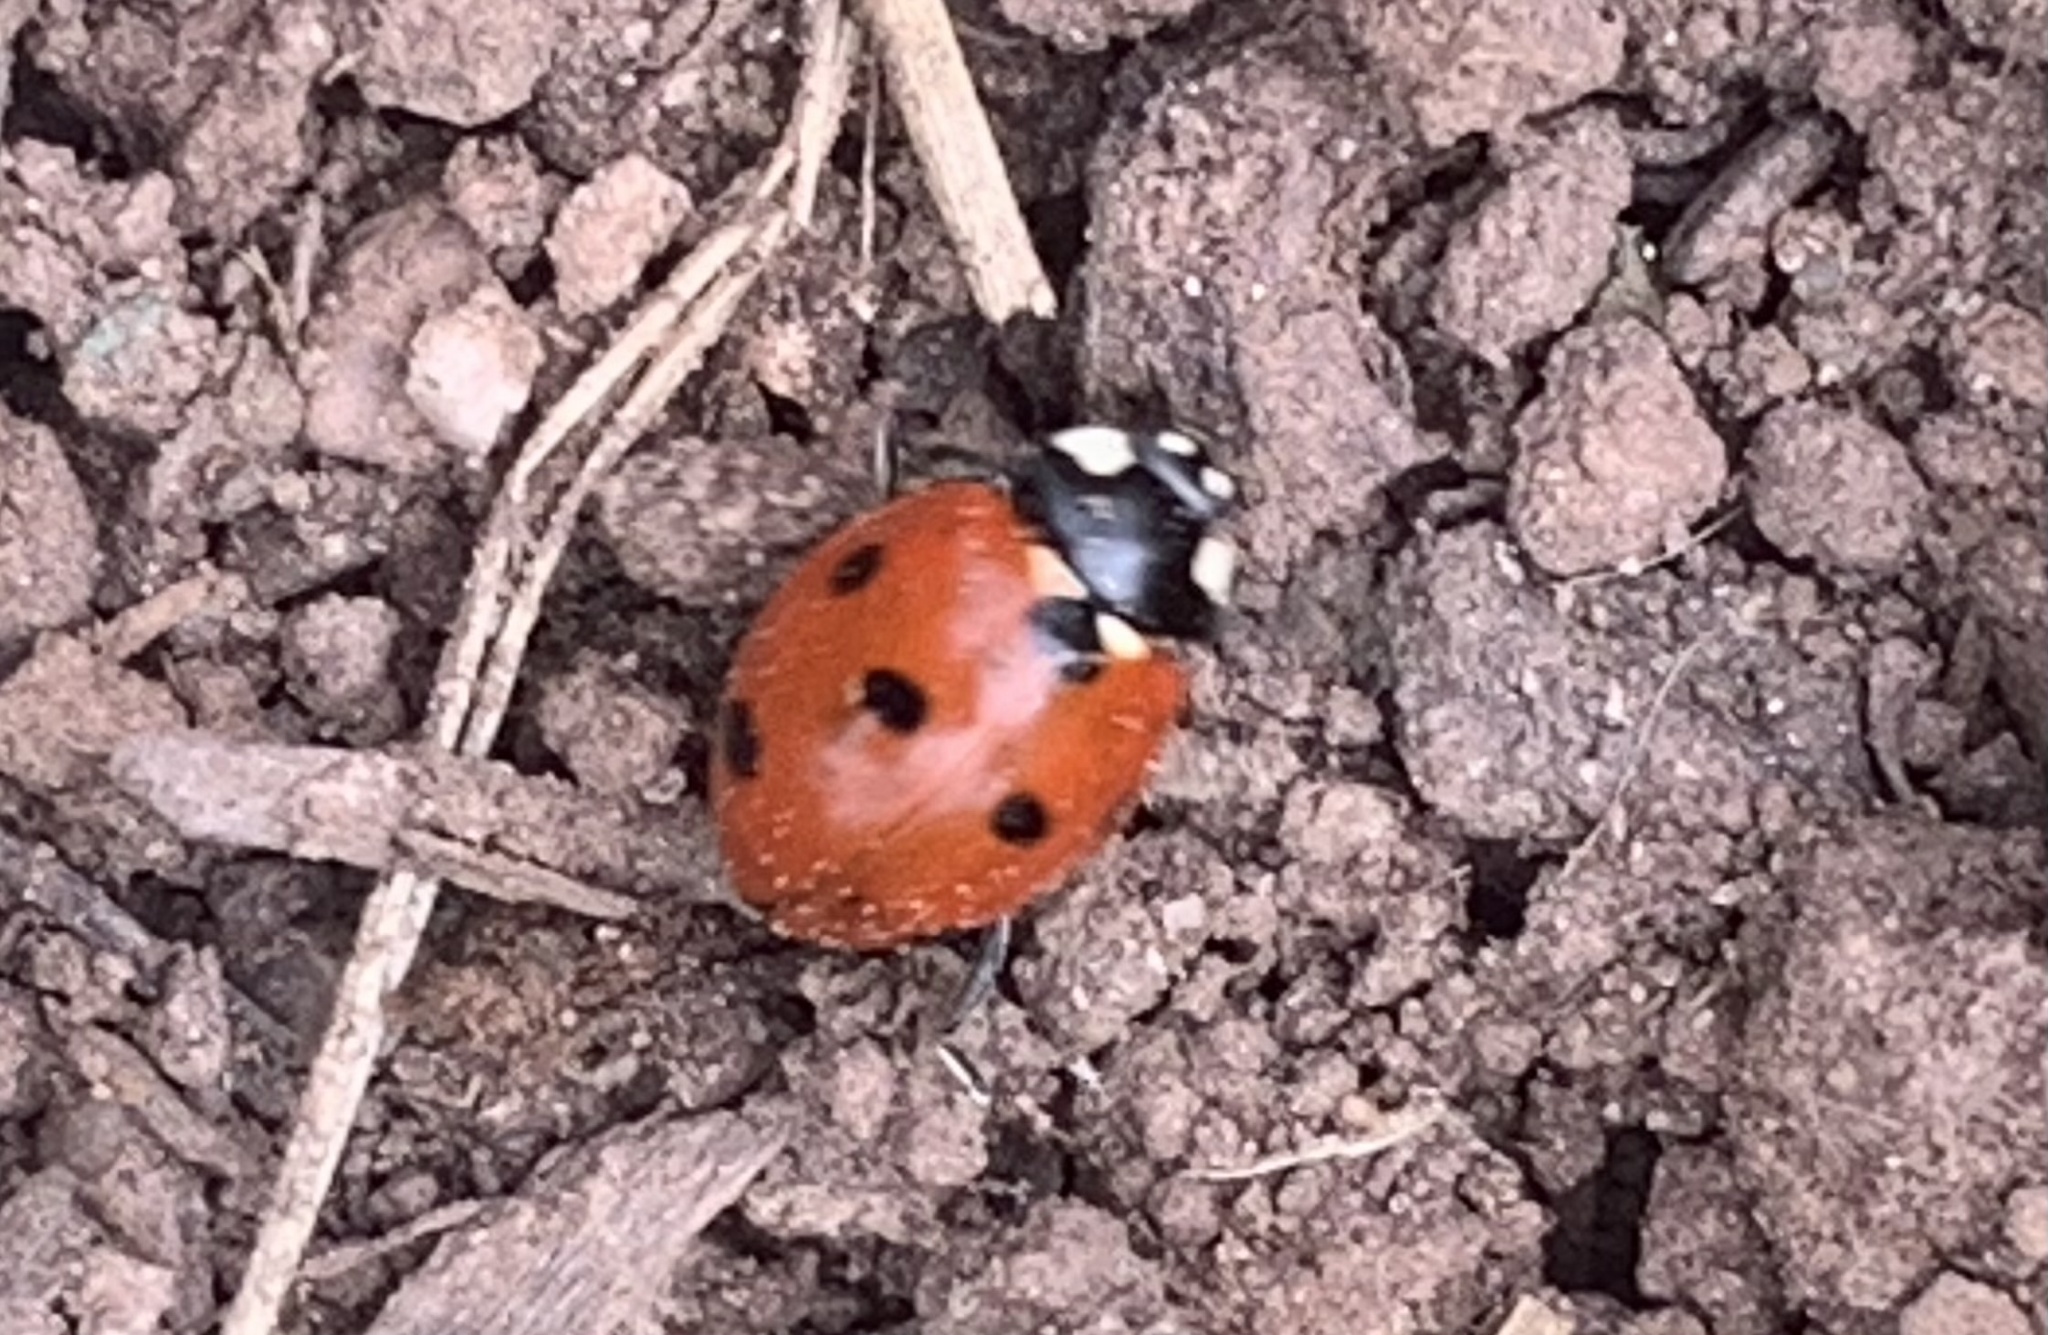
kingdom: Animalia
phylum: Arthropoda
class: Insecta
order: Coleoptera
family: Coccinellidae
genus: Coccinella
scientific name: Coccinella septempunctata
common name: Sevenspotted lady beetle
